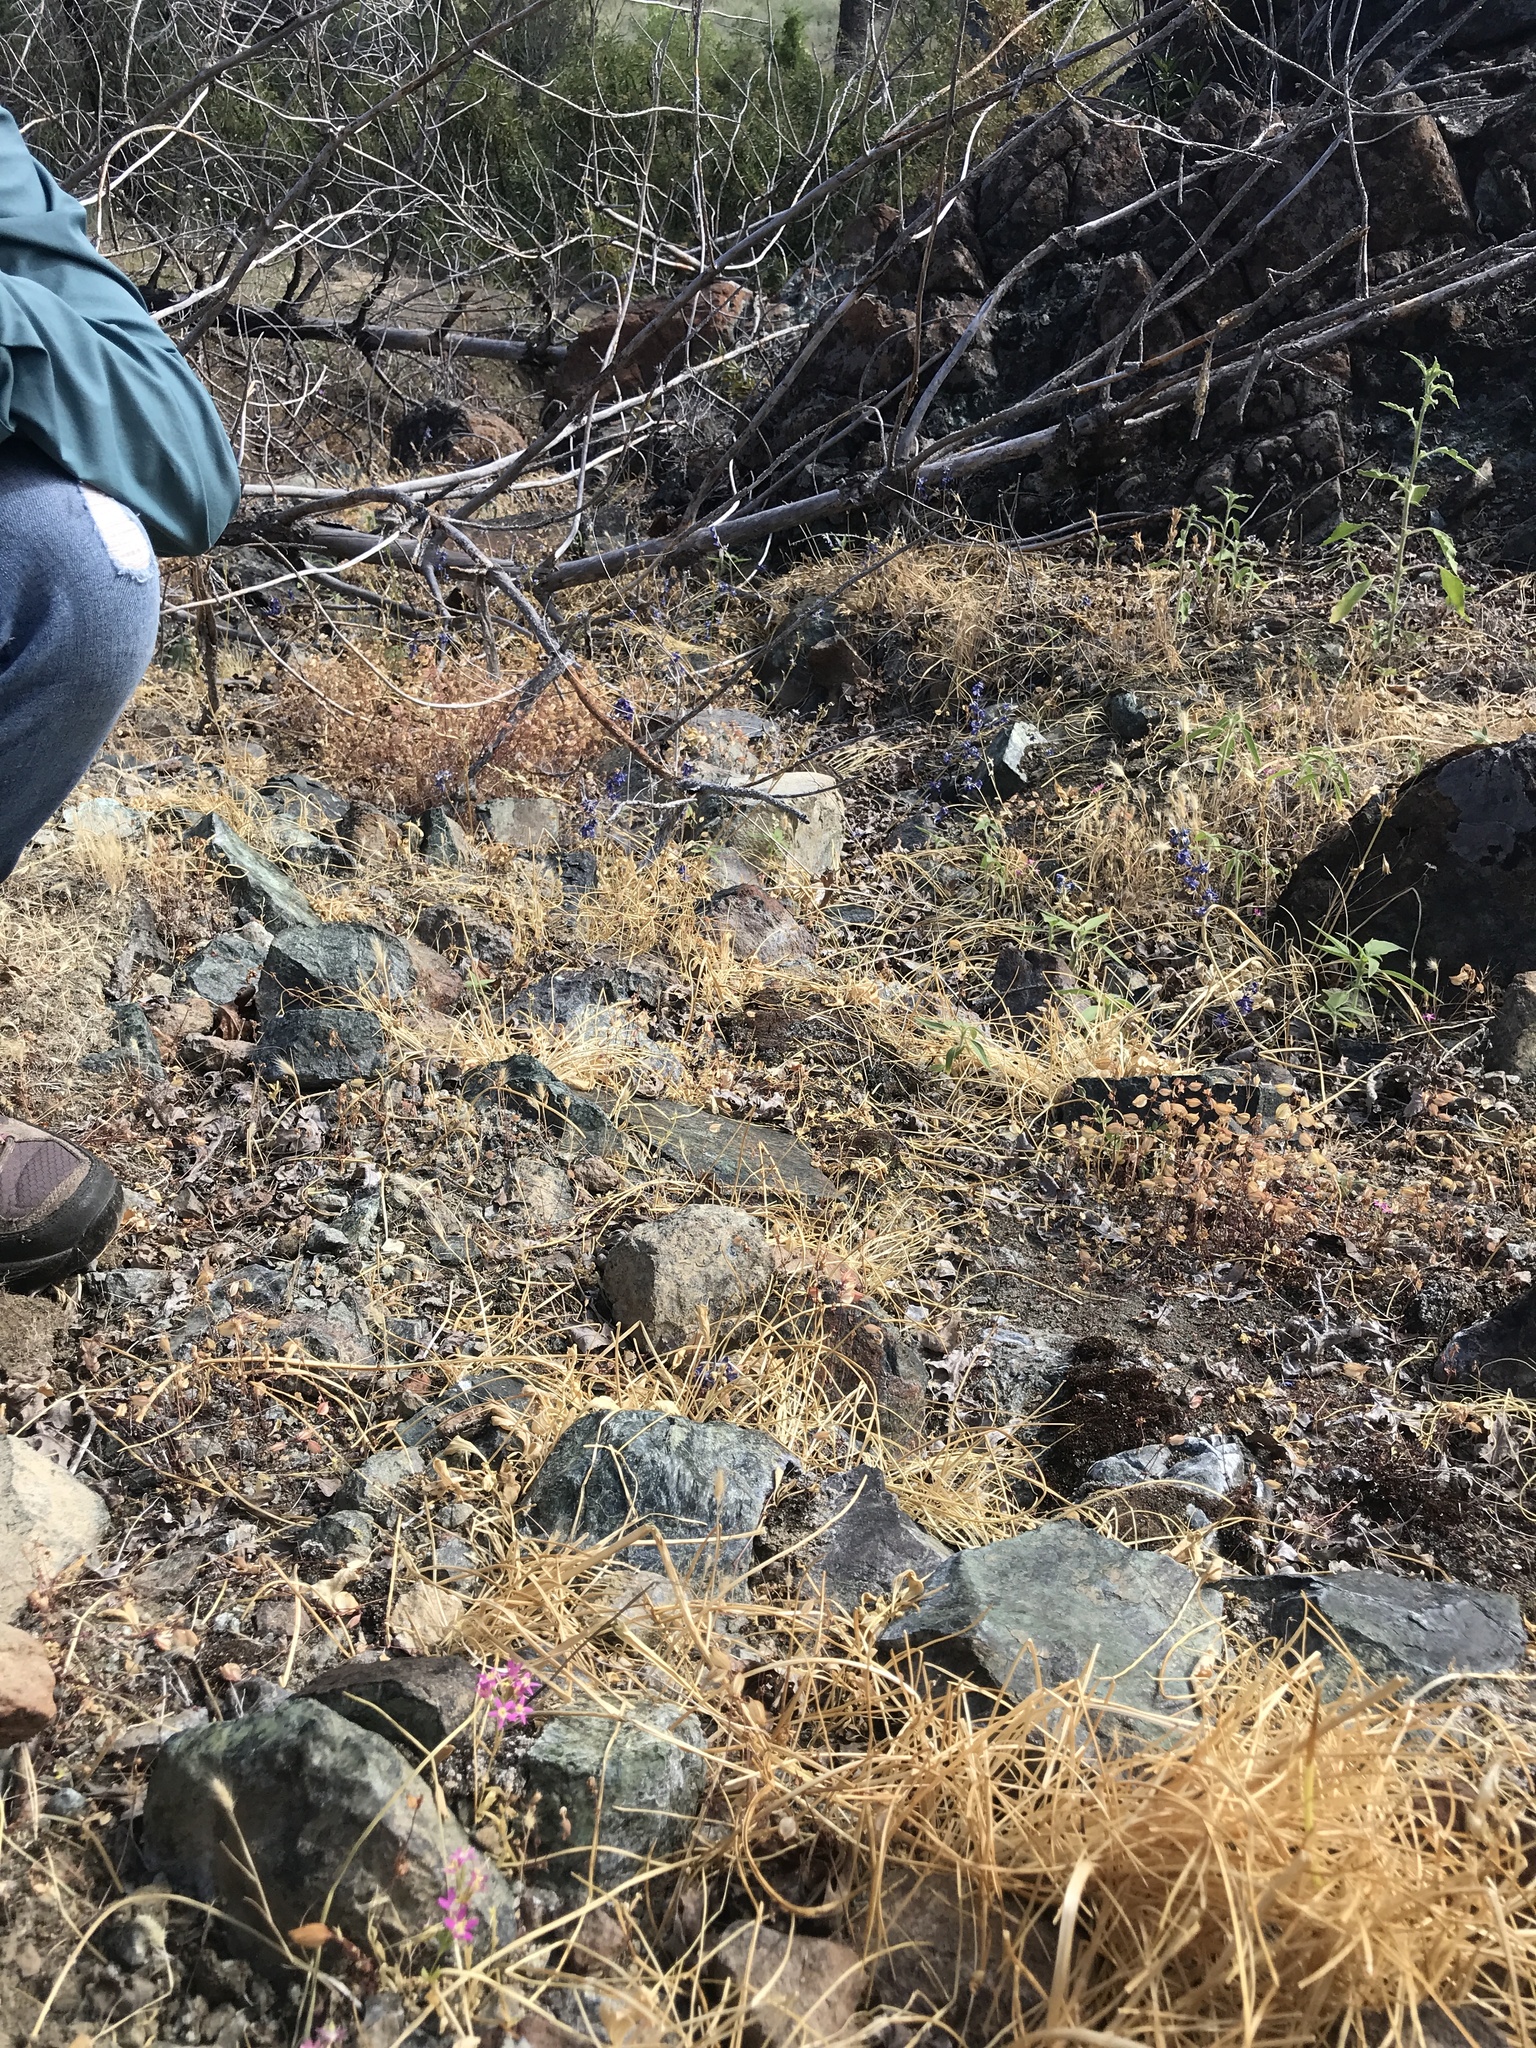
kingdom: Plantae
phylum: Tracheophyta
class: Magnoliopsida
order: Gentianales
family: Gentianaceae
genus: Zeltnera
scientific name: Zeltnera trichantha
